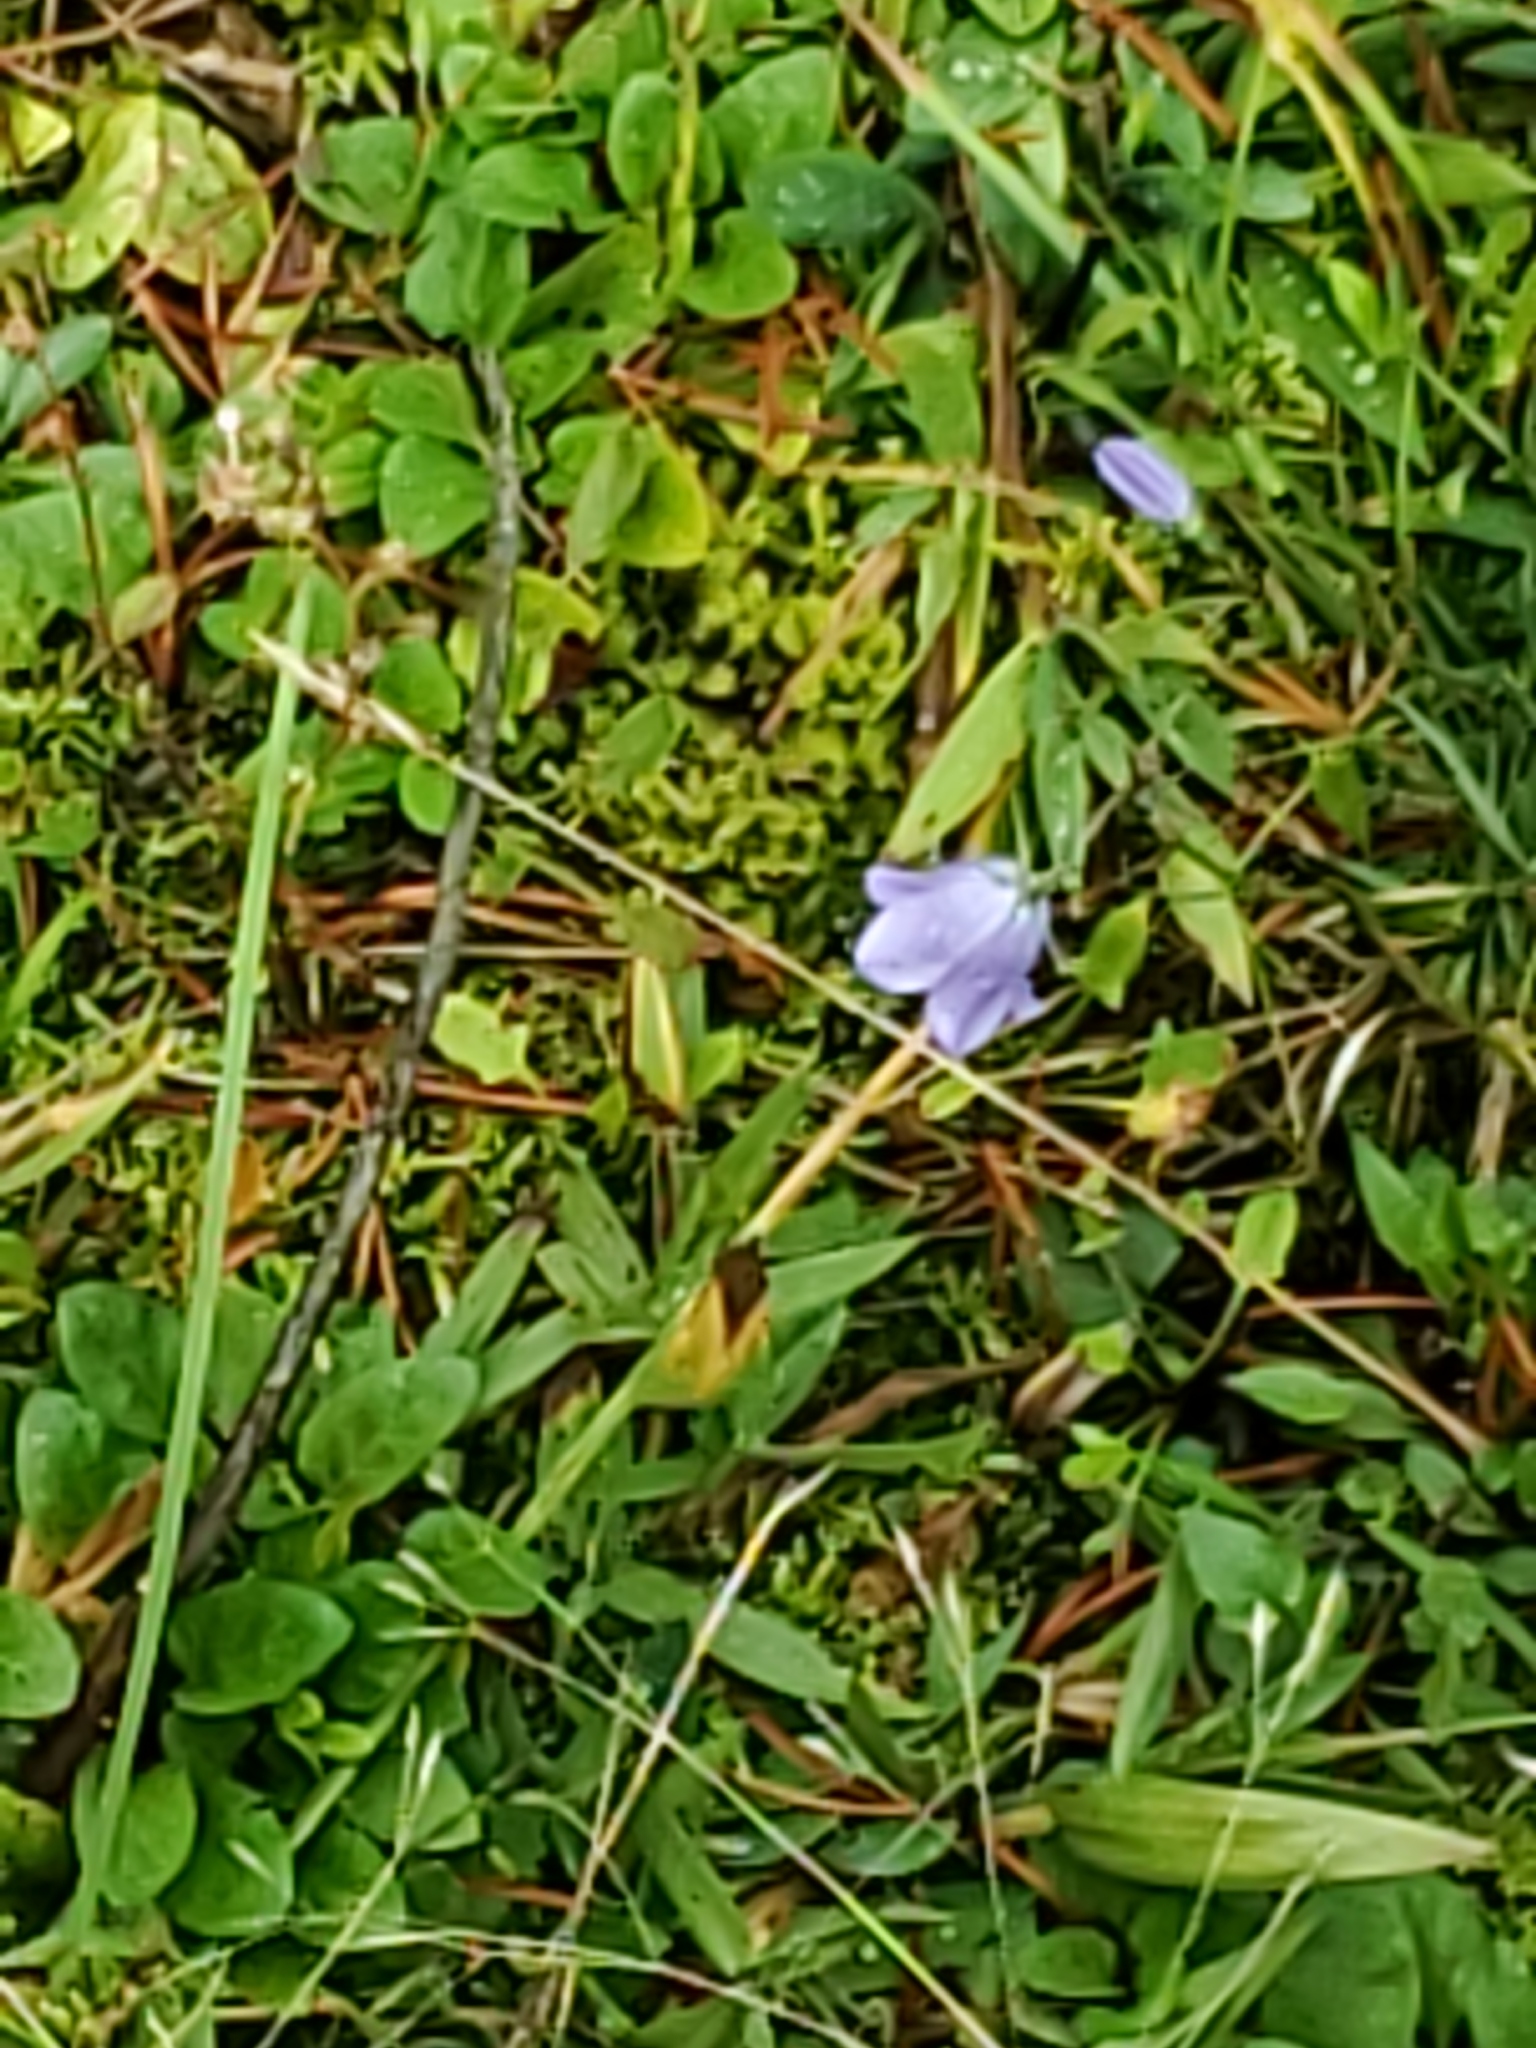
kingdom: Plantae
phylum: Tracheophyta
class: Magnoliopsida
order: Asterales
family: Campanulaceae
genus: Campanula
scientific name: Campanula petiolata
